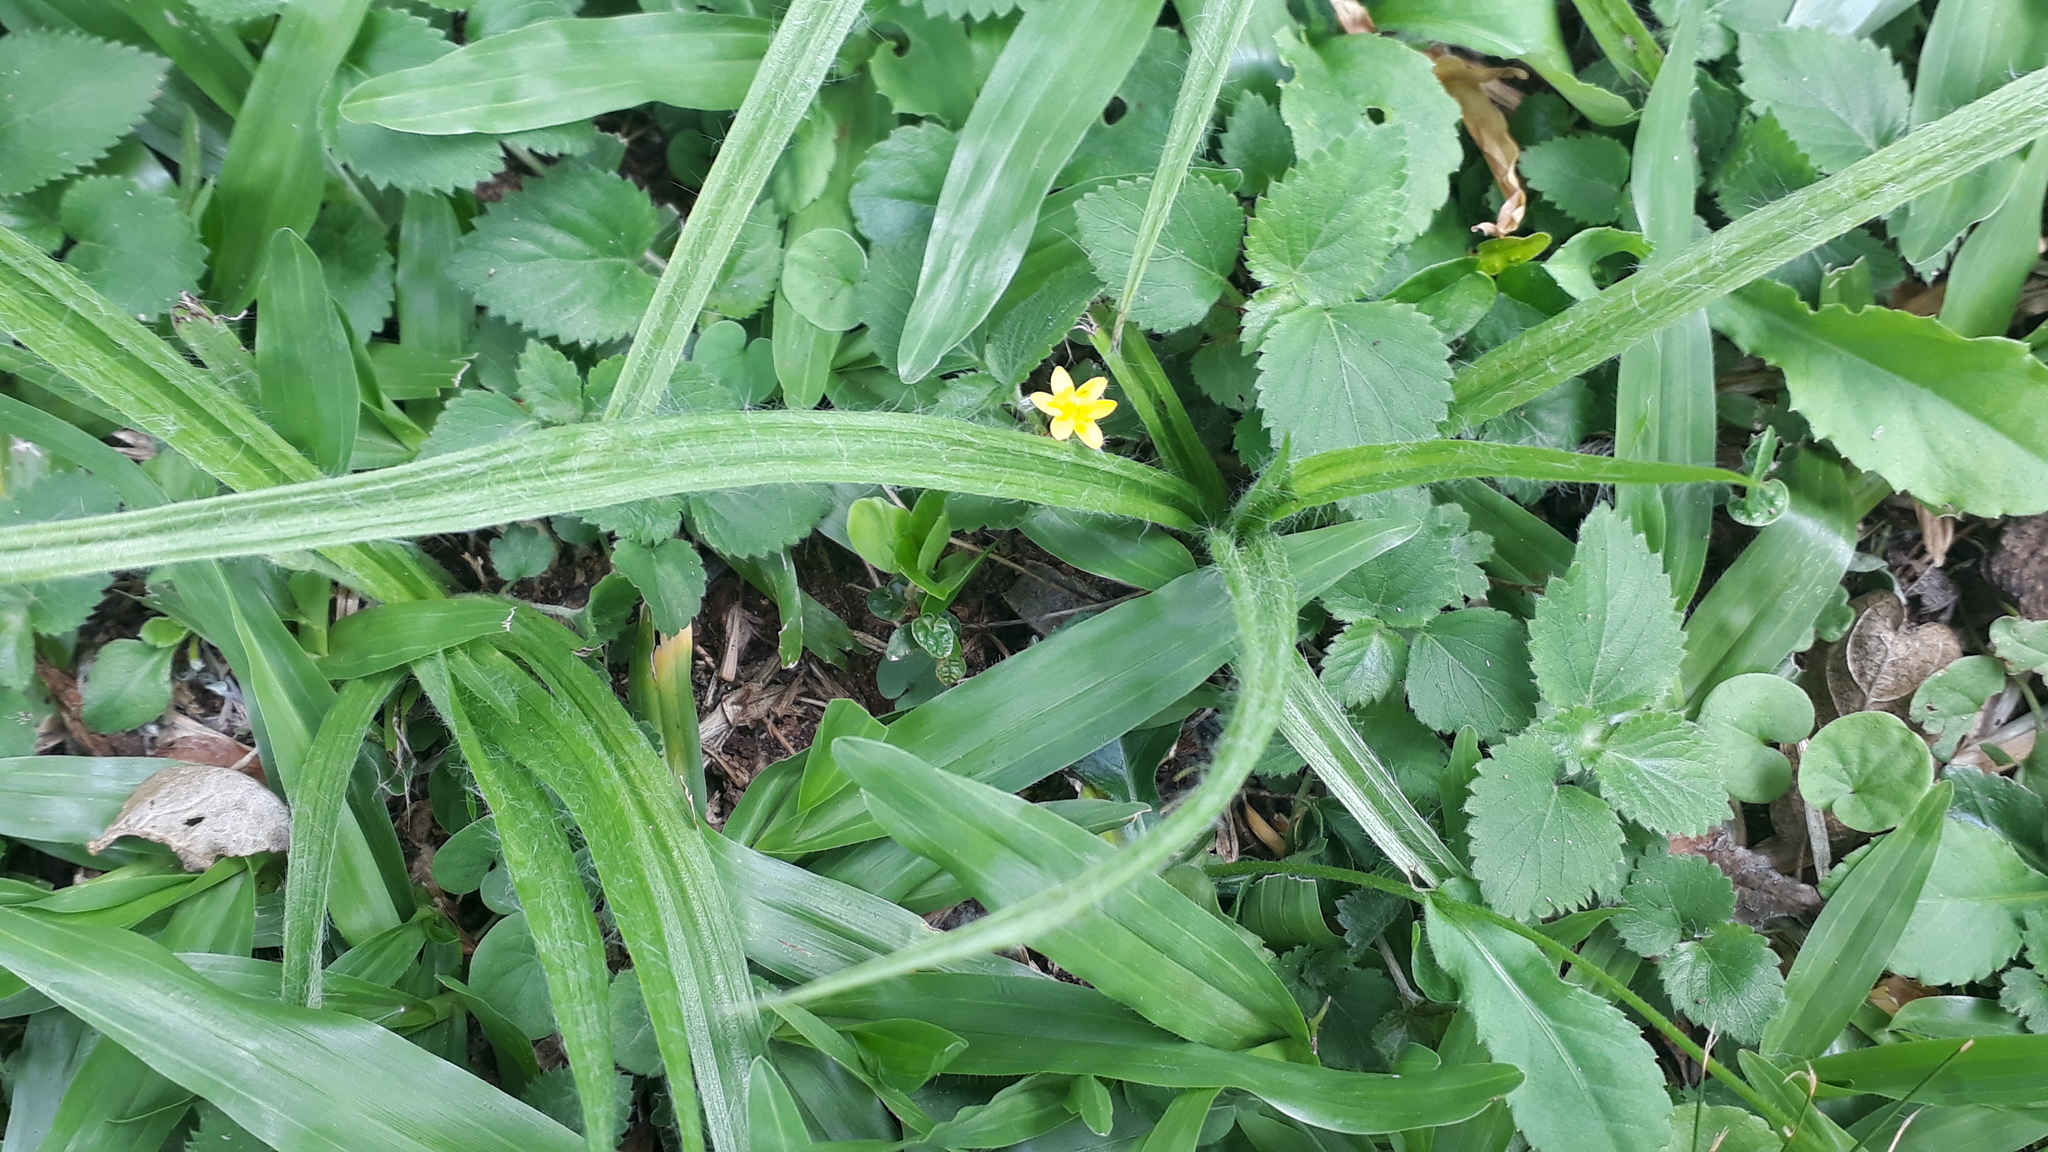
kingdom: Plantae
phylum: Tracheophyta
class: Liliopsida
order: Asparagales
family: Hypoxidaceae
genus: Hypoxis
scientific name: Hypoxis decumbens
